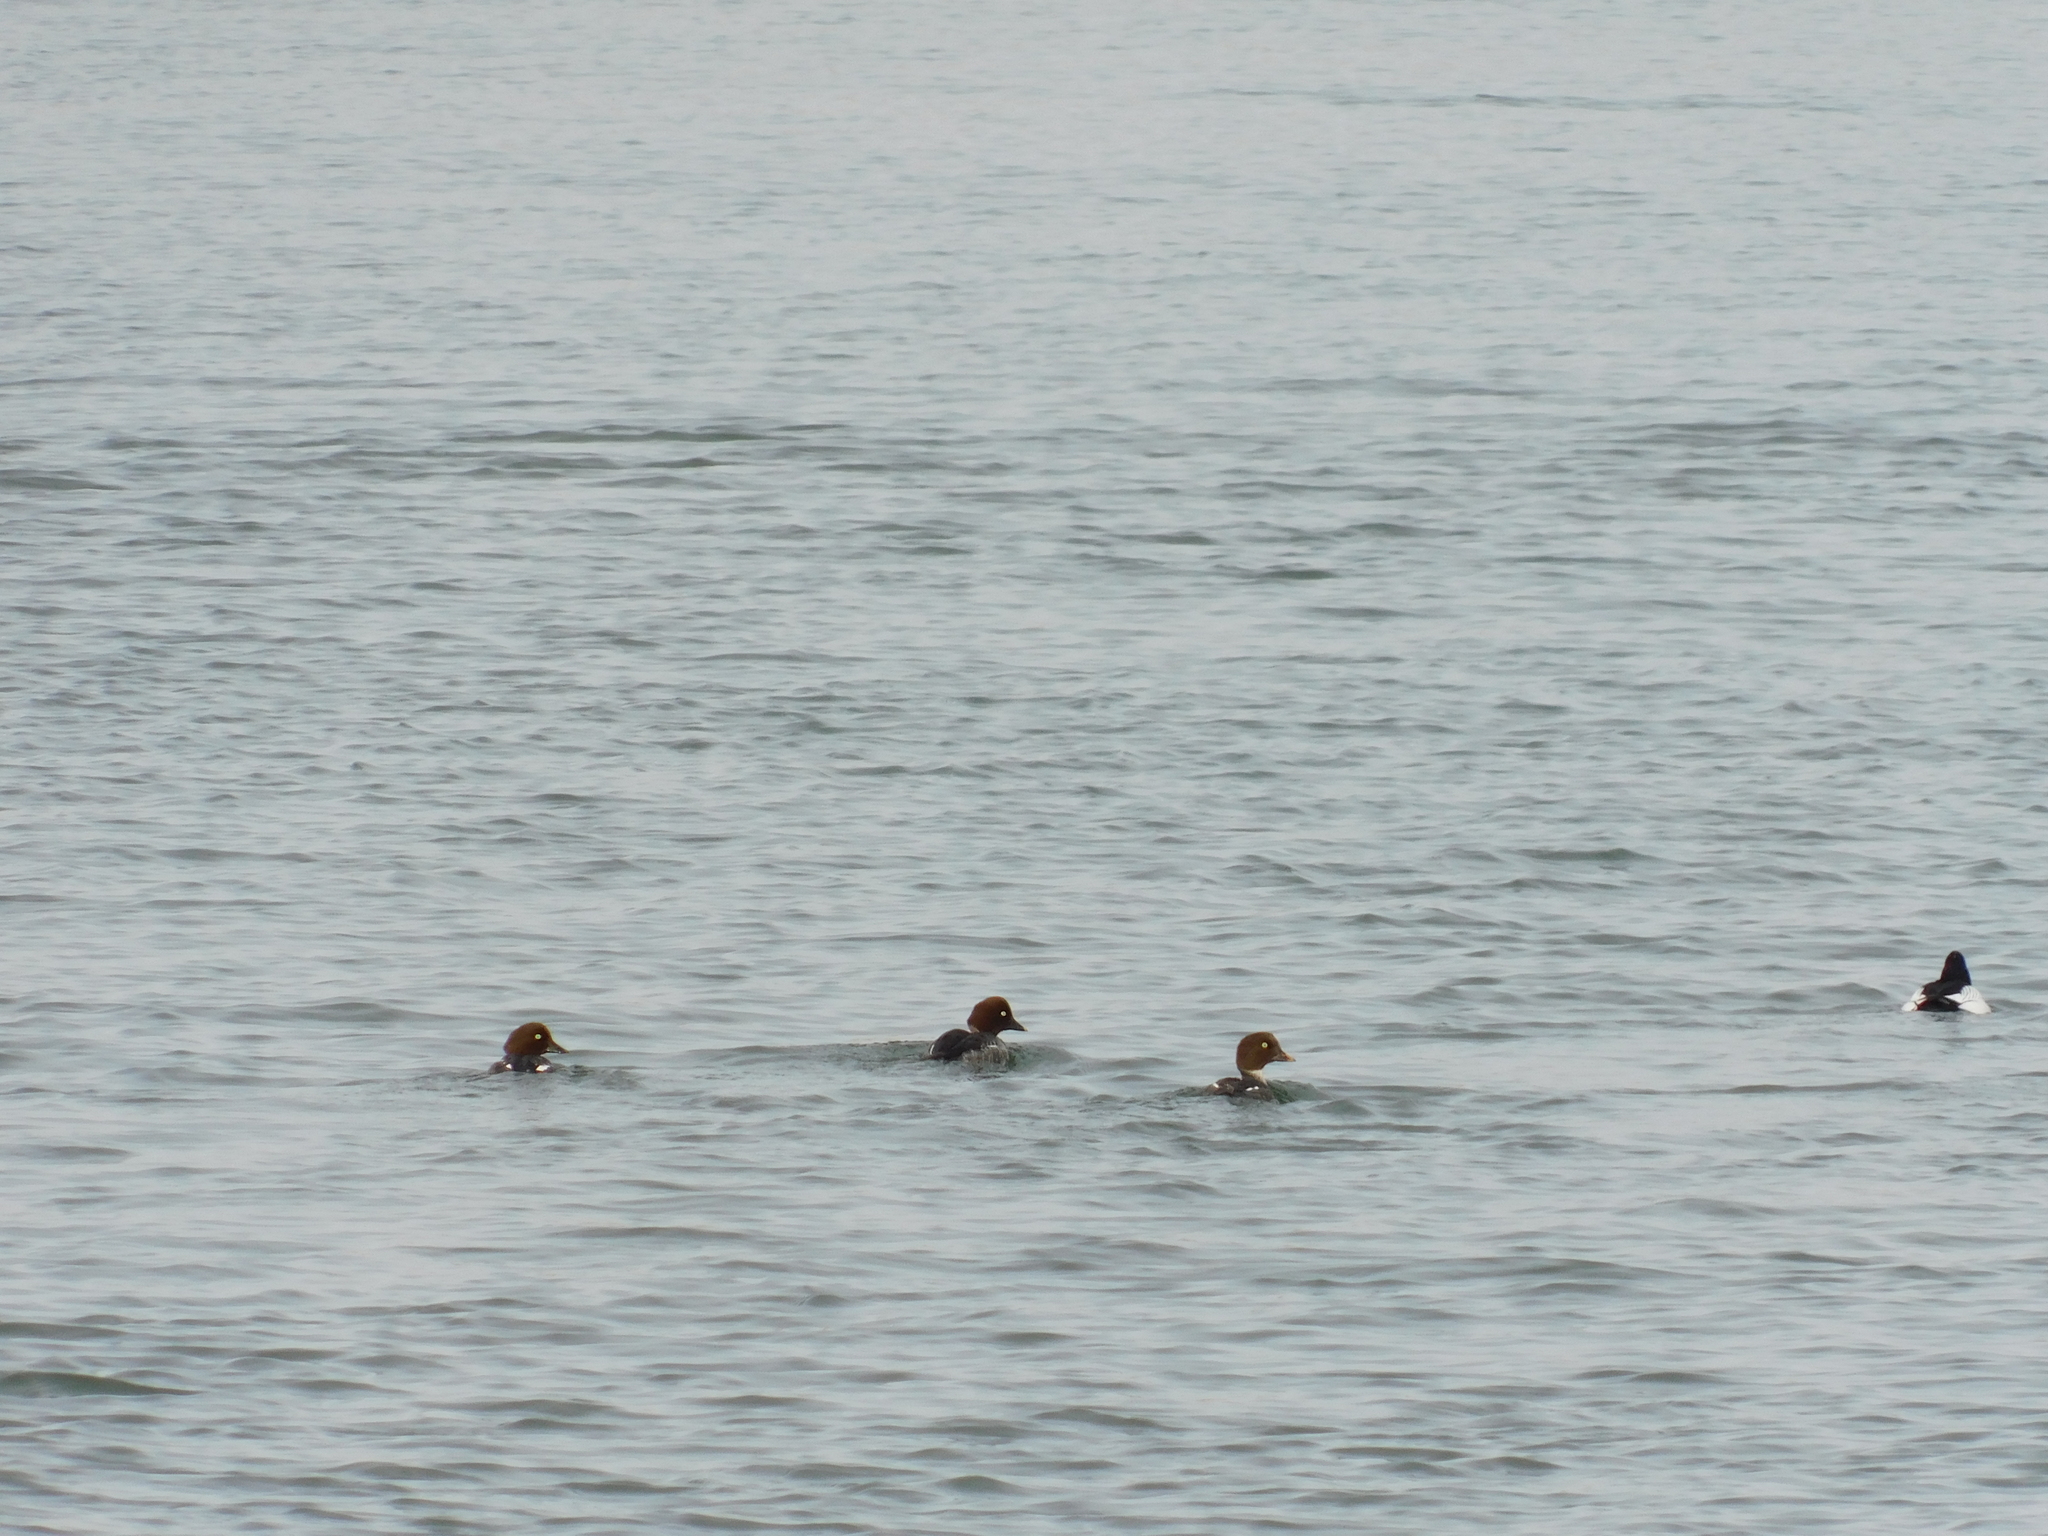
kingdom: Animalia
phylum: Chordata
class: Aves
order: Anseriformes
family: Anatidae
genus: Bucephala
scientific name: Bucephala clangula
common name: Common goldeneye
